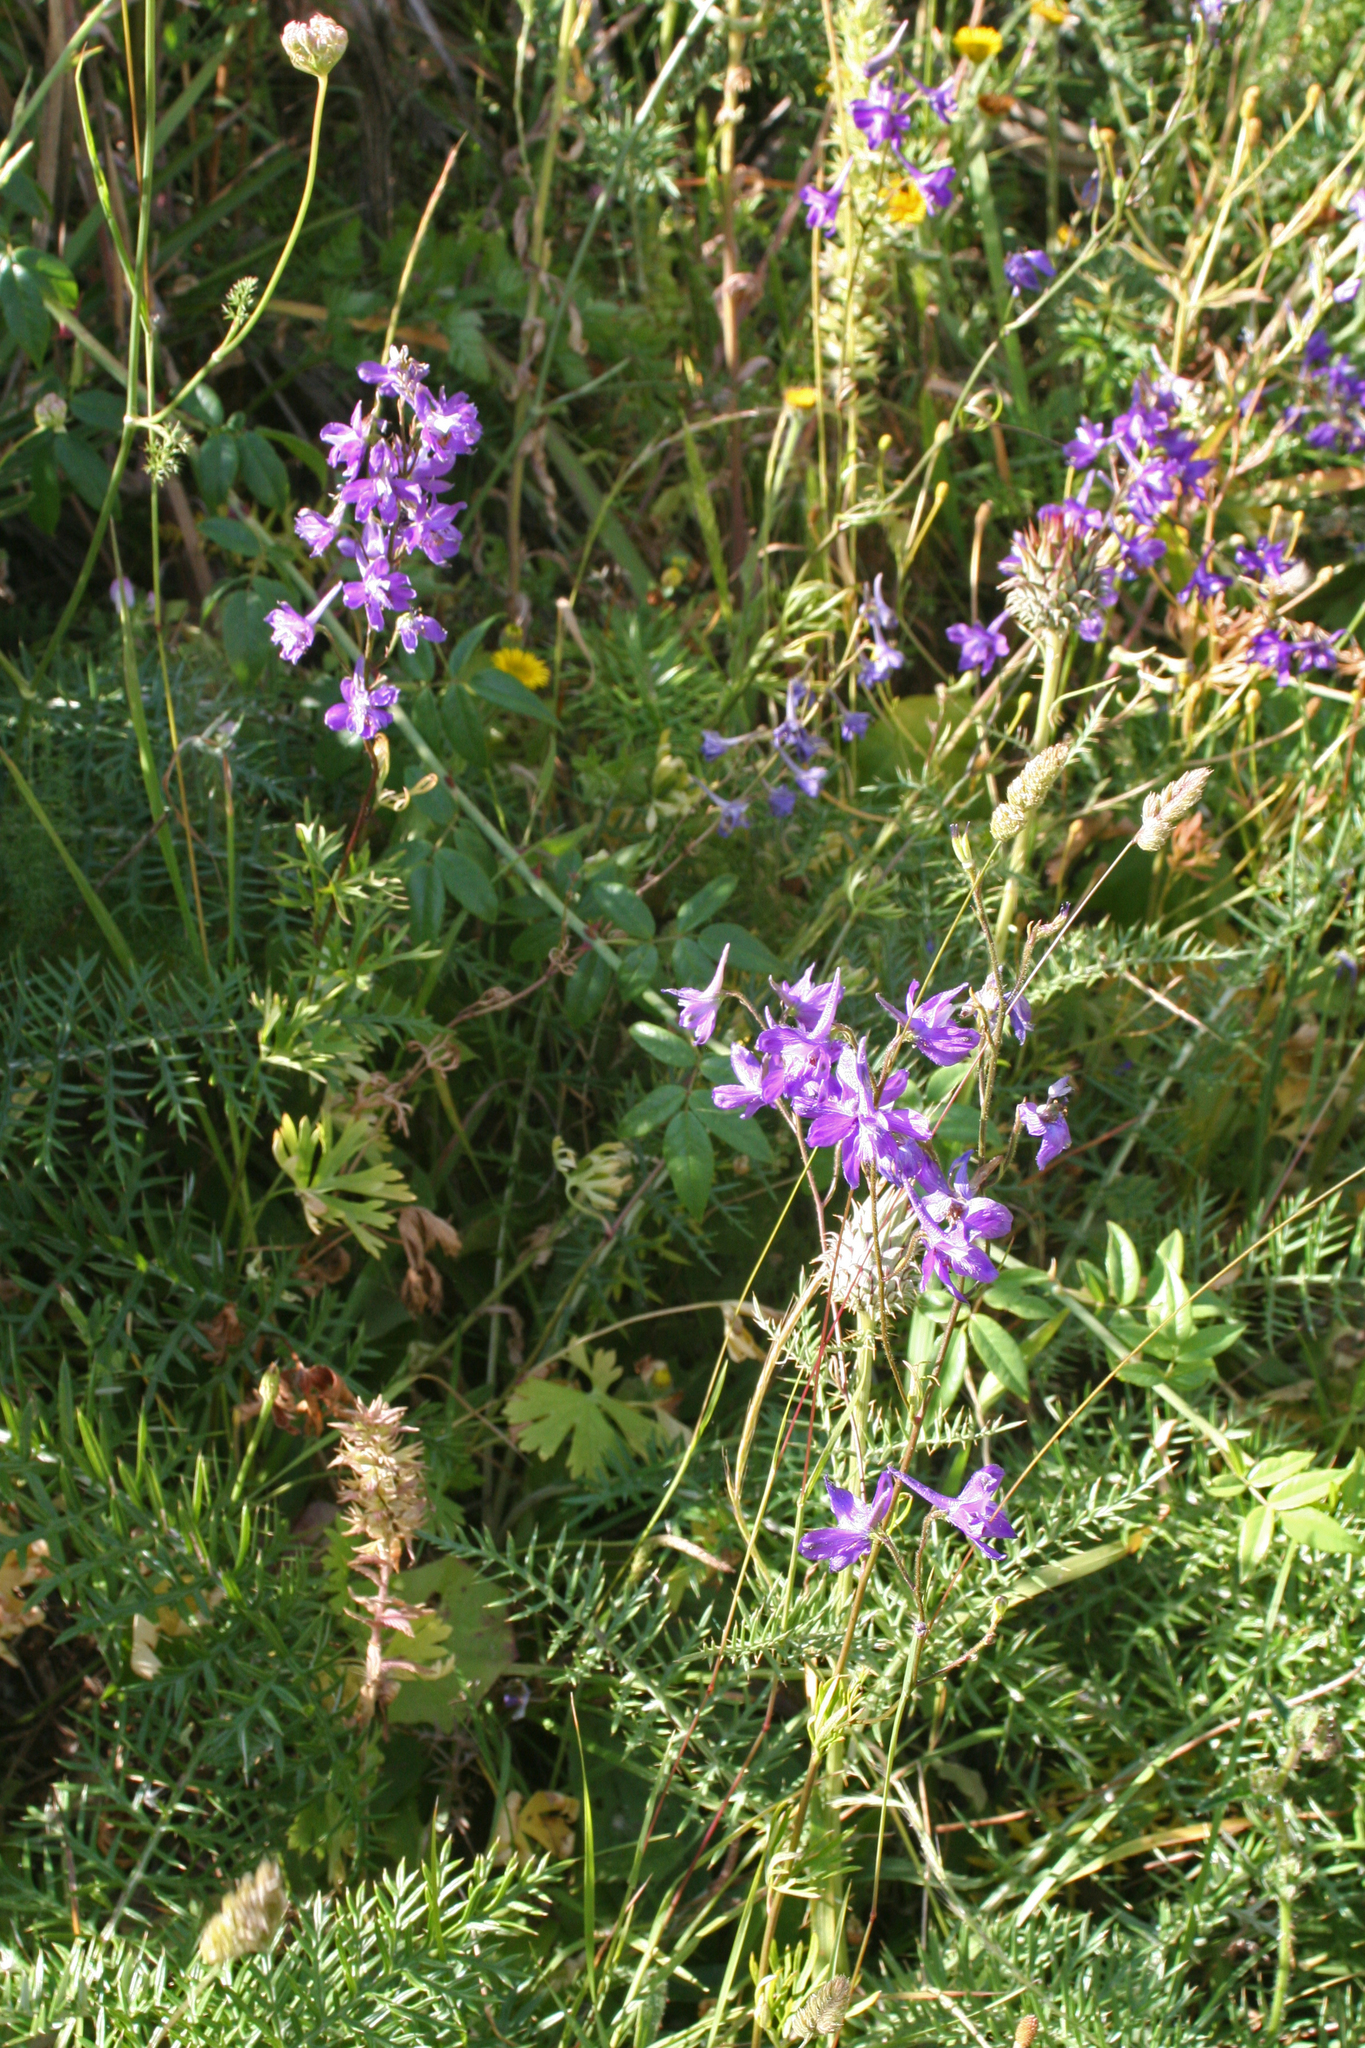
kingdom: Plantae
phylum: Tracheophyta
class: Magnoliopsida
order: Ranunculales
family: Ranunculaceae
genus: Delphinium
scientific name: Delphinium pentagynum
